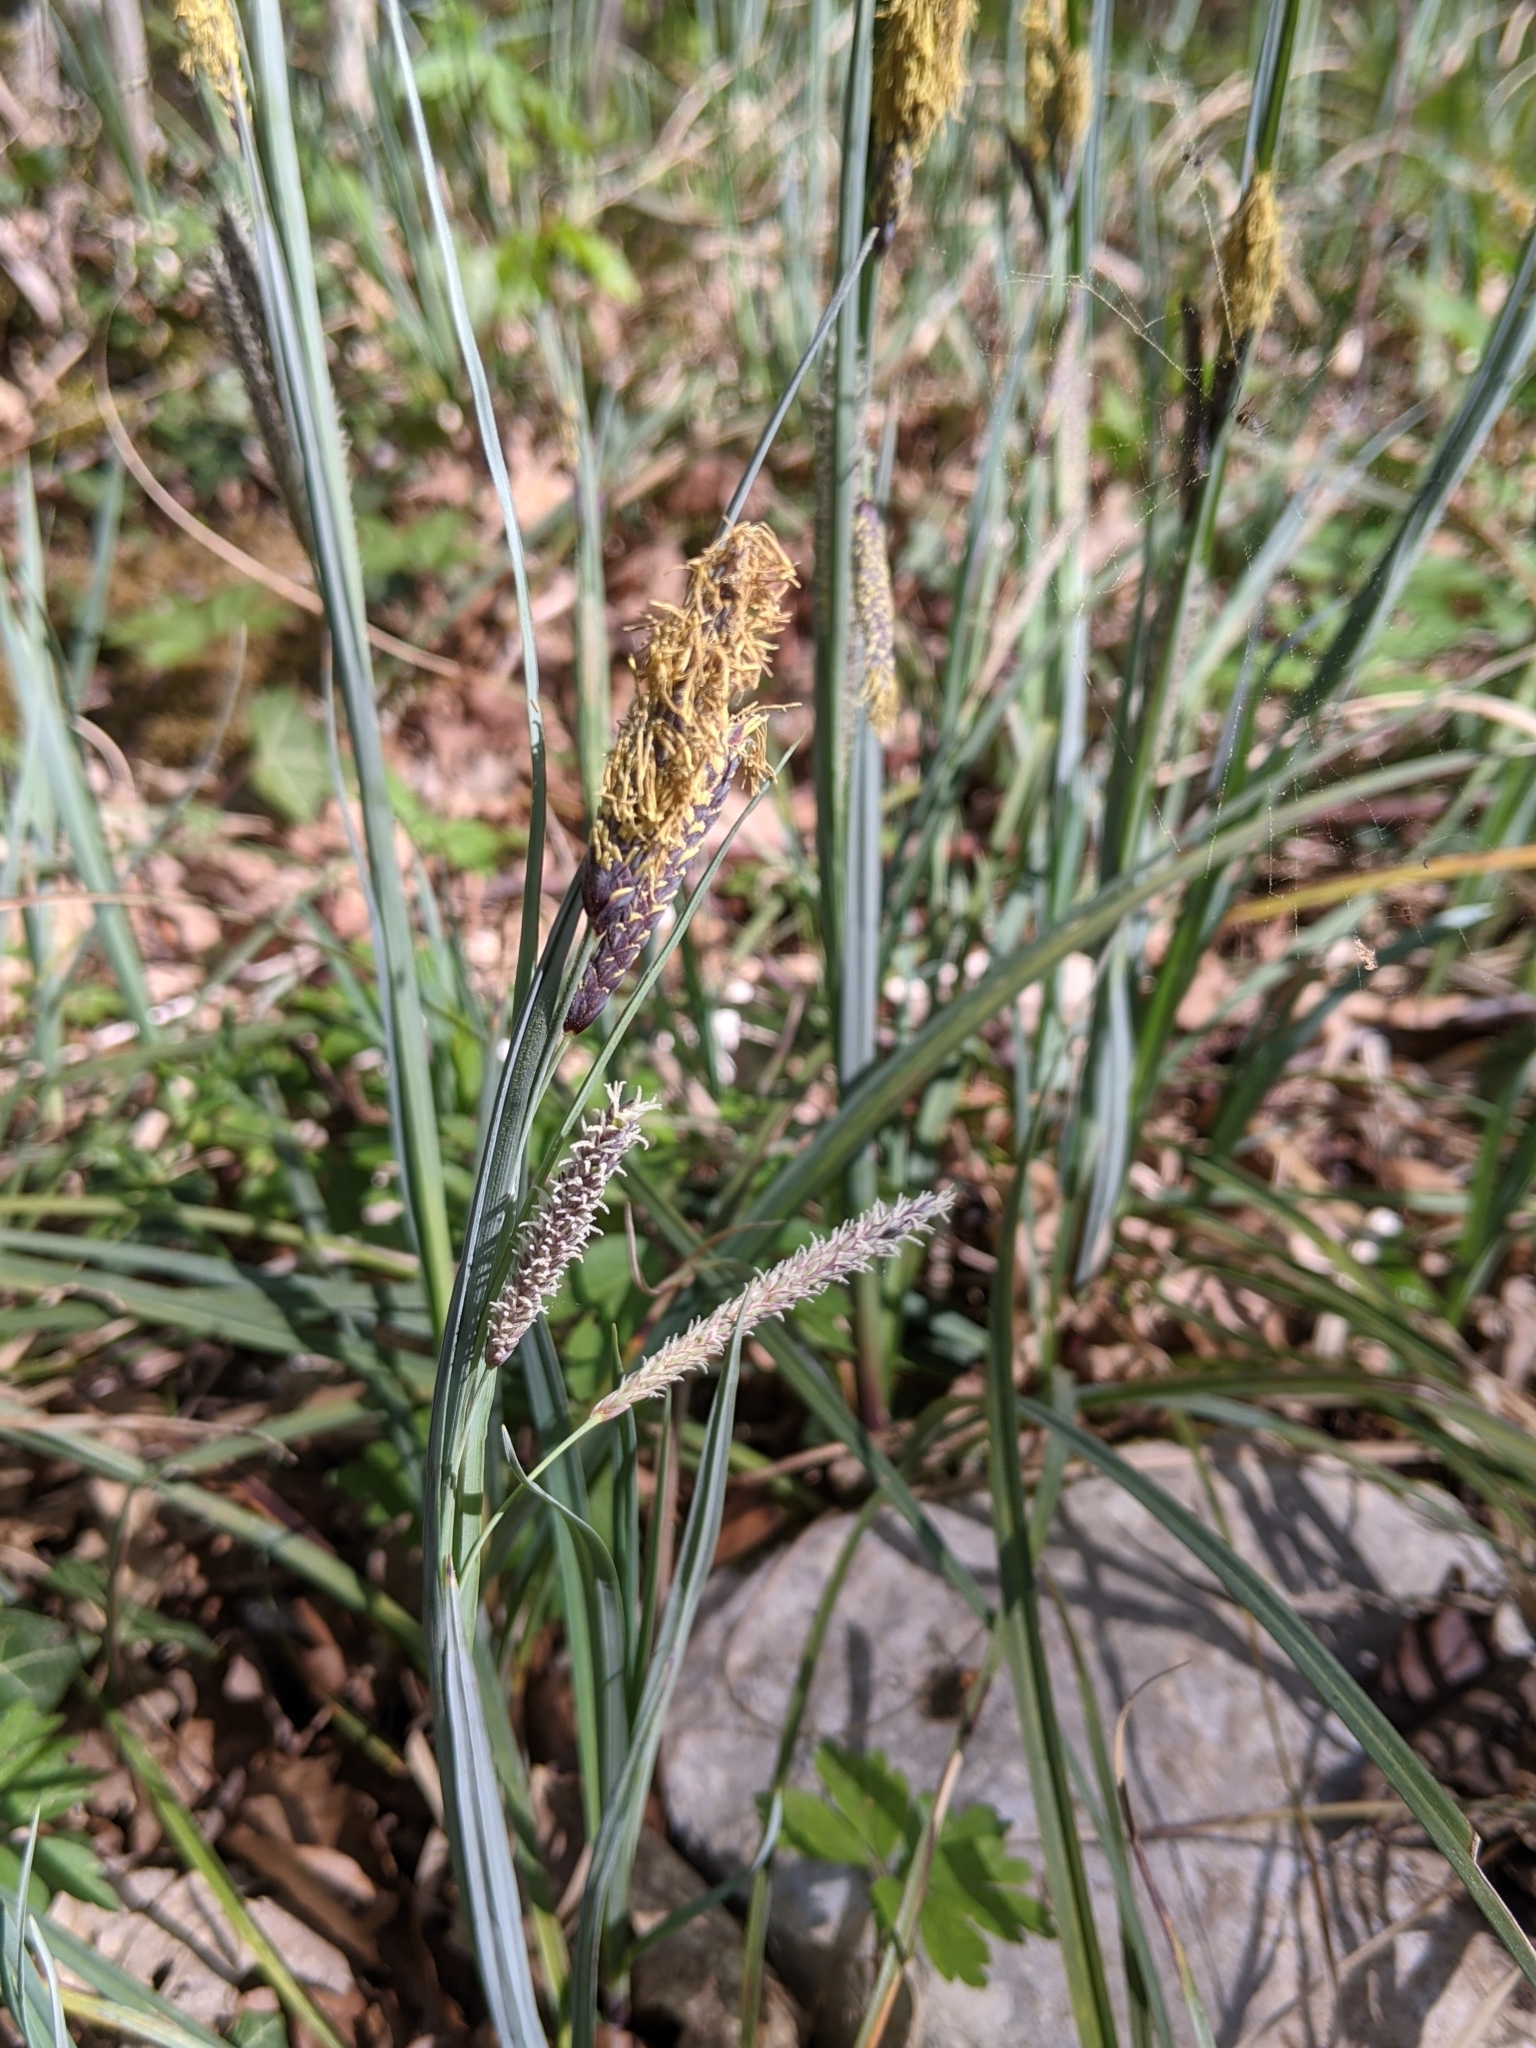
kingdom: Plantae
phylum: Tracheophyta
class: Liliopsida
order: Poales
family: Cyperaceae
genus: Carex
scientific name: Carex flacca
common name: Glaucous sedge
